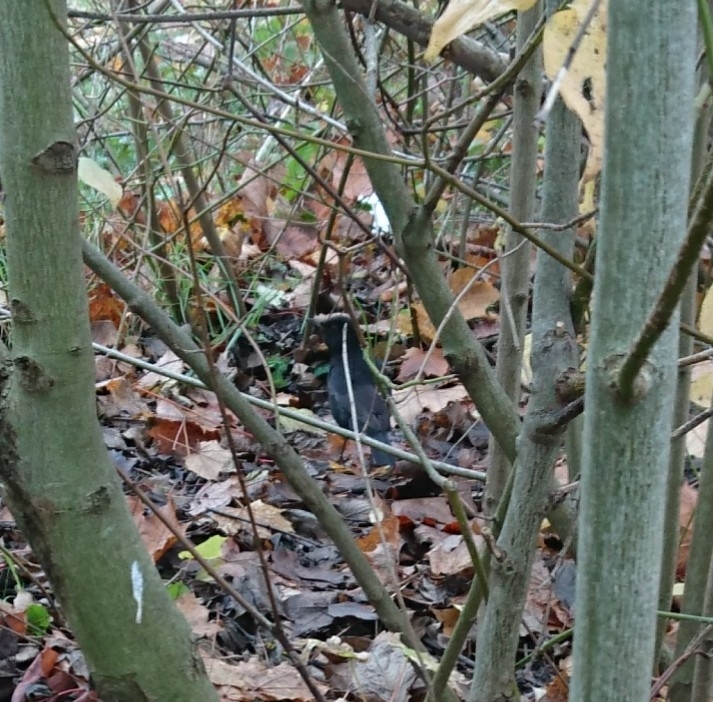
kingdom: Animalia
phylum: Chordata
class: Aves
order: Passeriformes
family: Turdidae
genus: Turdus
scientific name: Turdus merula
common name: Common blackbird
